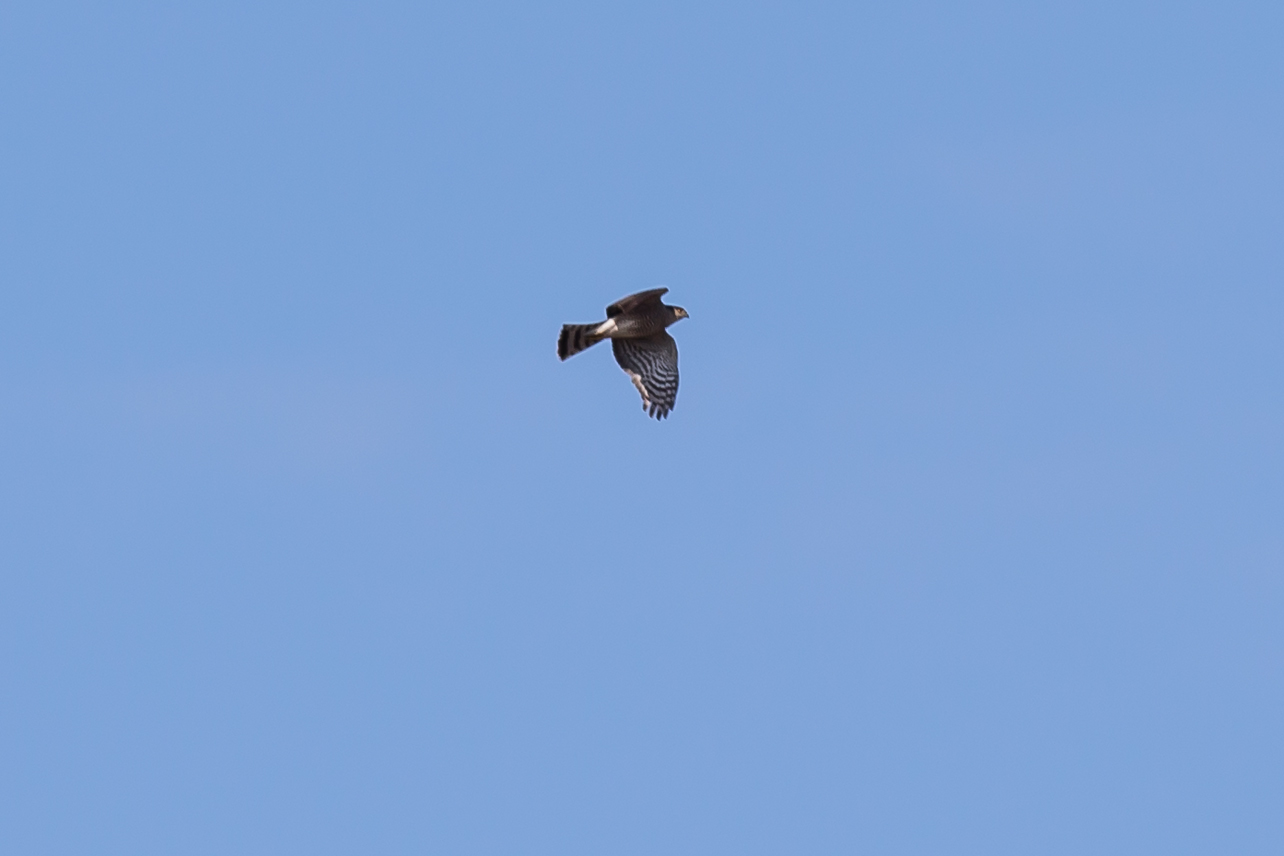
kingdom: Animalia
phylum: Chordata
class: Aves
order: Accipitriformes
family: Accipitridae
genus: Accipiter
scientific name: Accipiter striatus
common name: Sharp-shinned hawk
